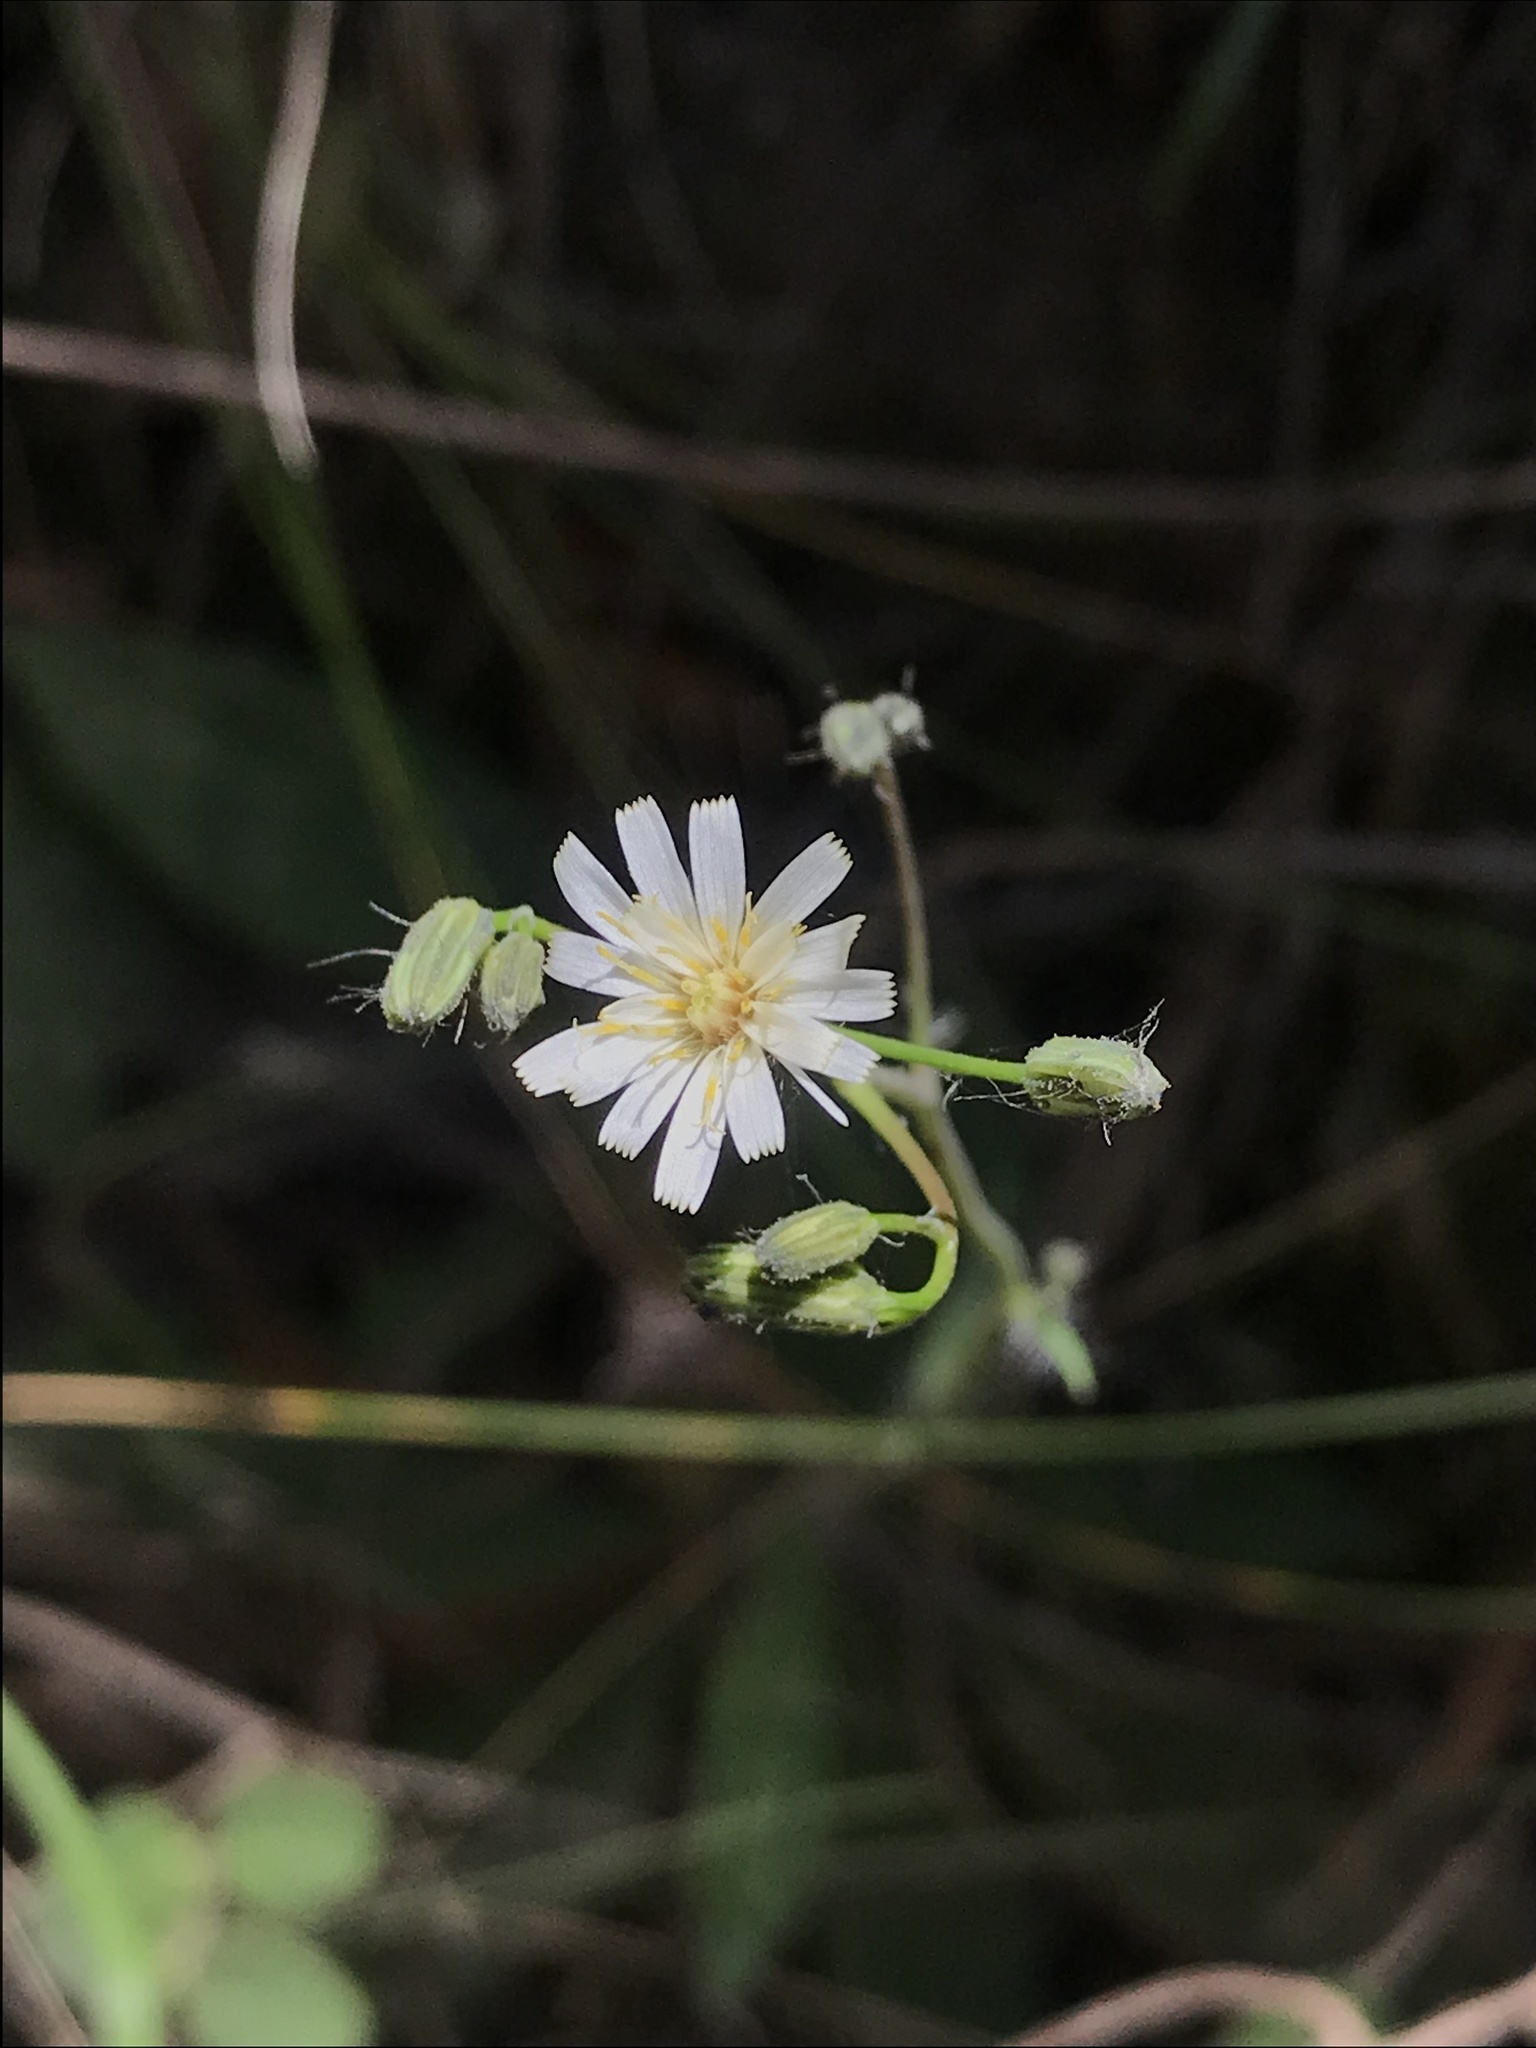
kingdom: Plantae
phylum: Tracheophyta
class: Magnoliopsida
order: Asterales
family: Asteraceae
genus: Hieracium
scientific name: Hieracium albiflorum
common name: White hawkweed
